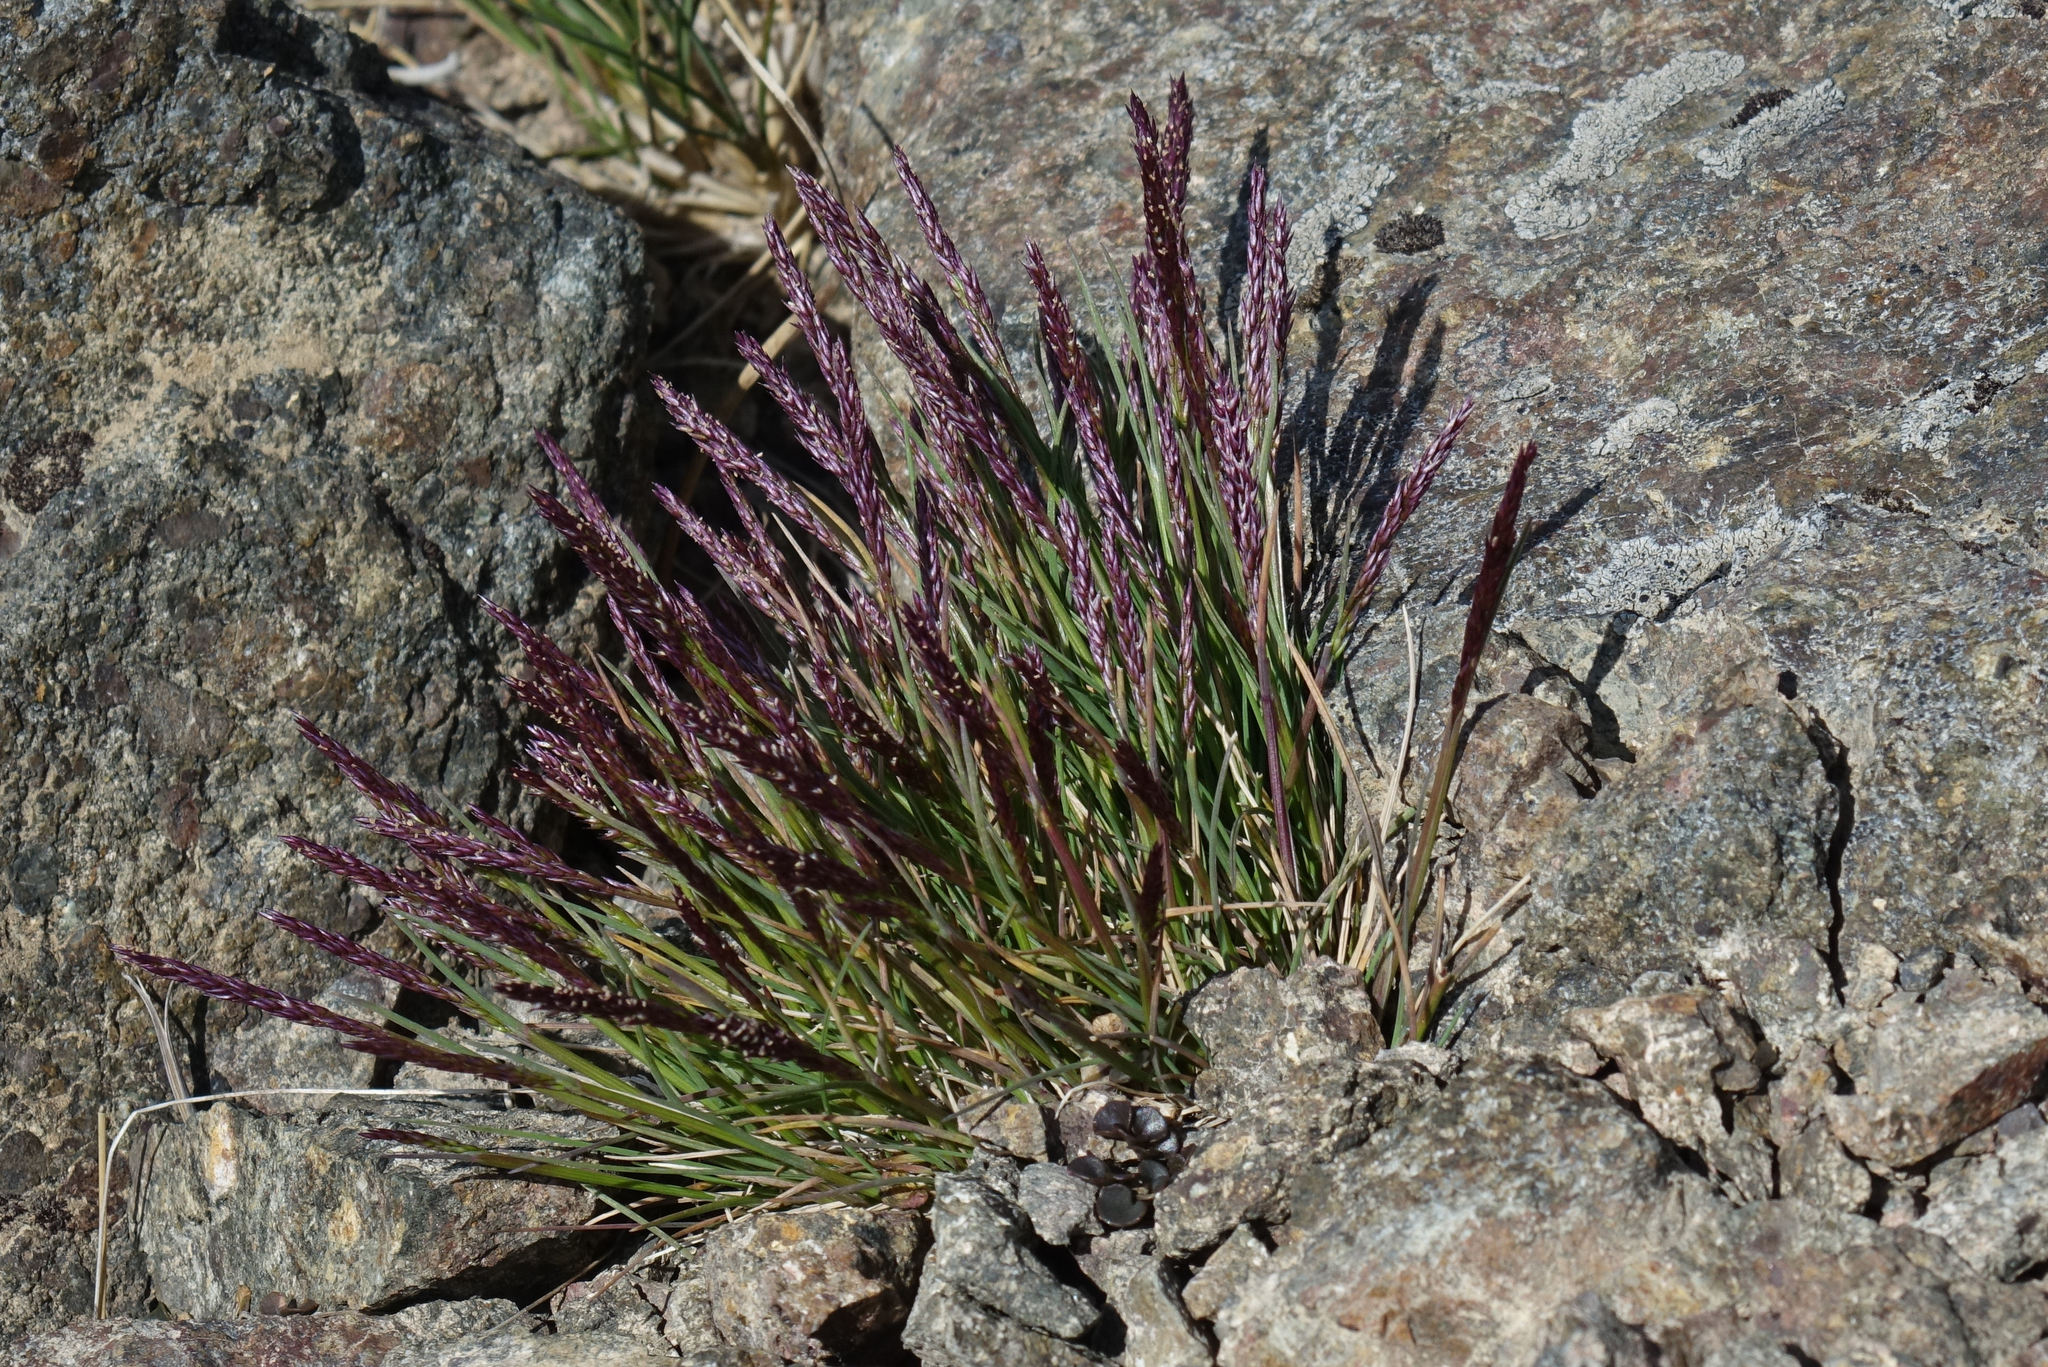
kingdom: Plantae
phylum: Tracheophyta
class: Liliopsida
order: Poales
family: Poaceae
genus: Agrostis
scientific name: Agrostis muelleriana
